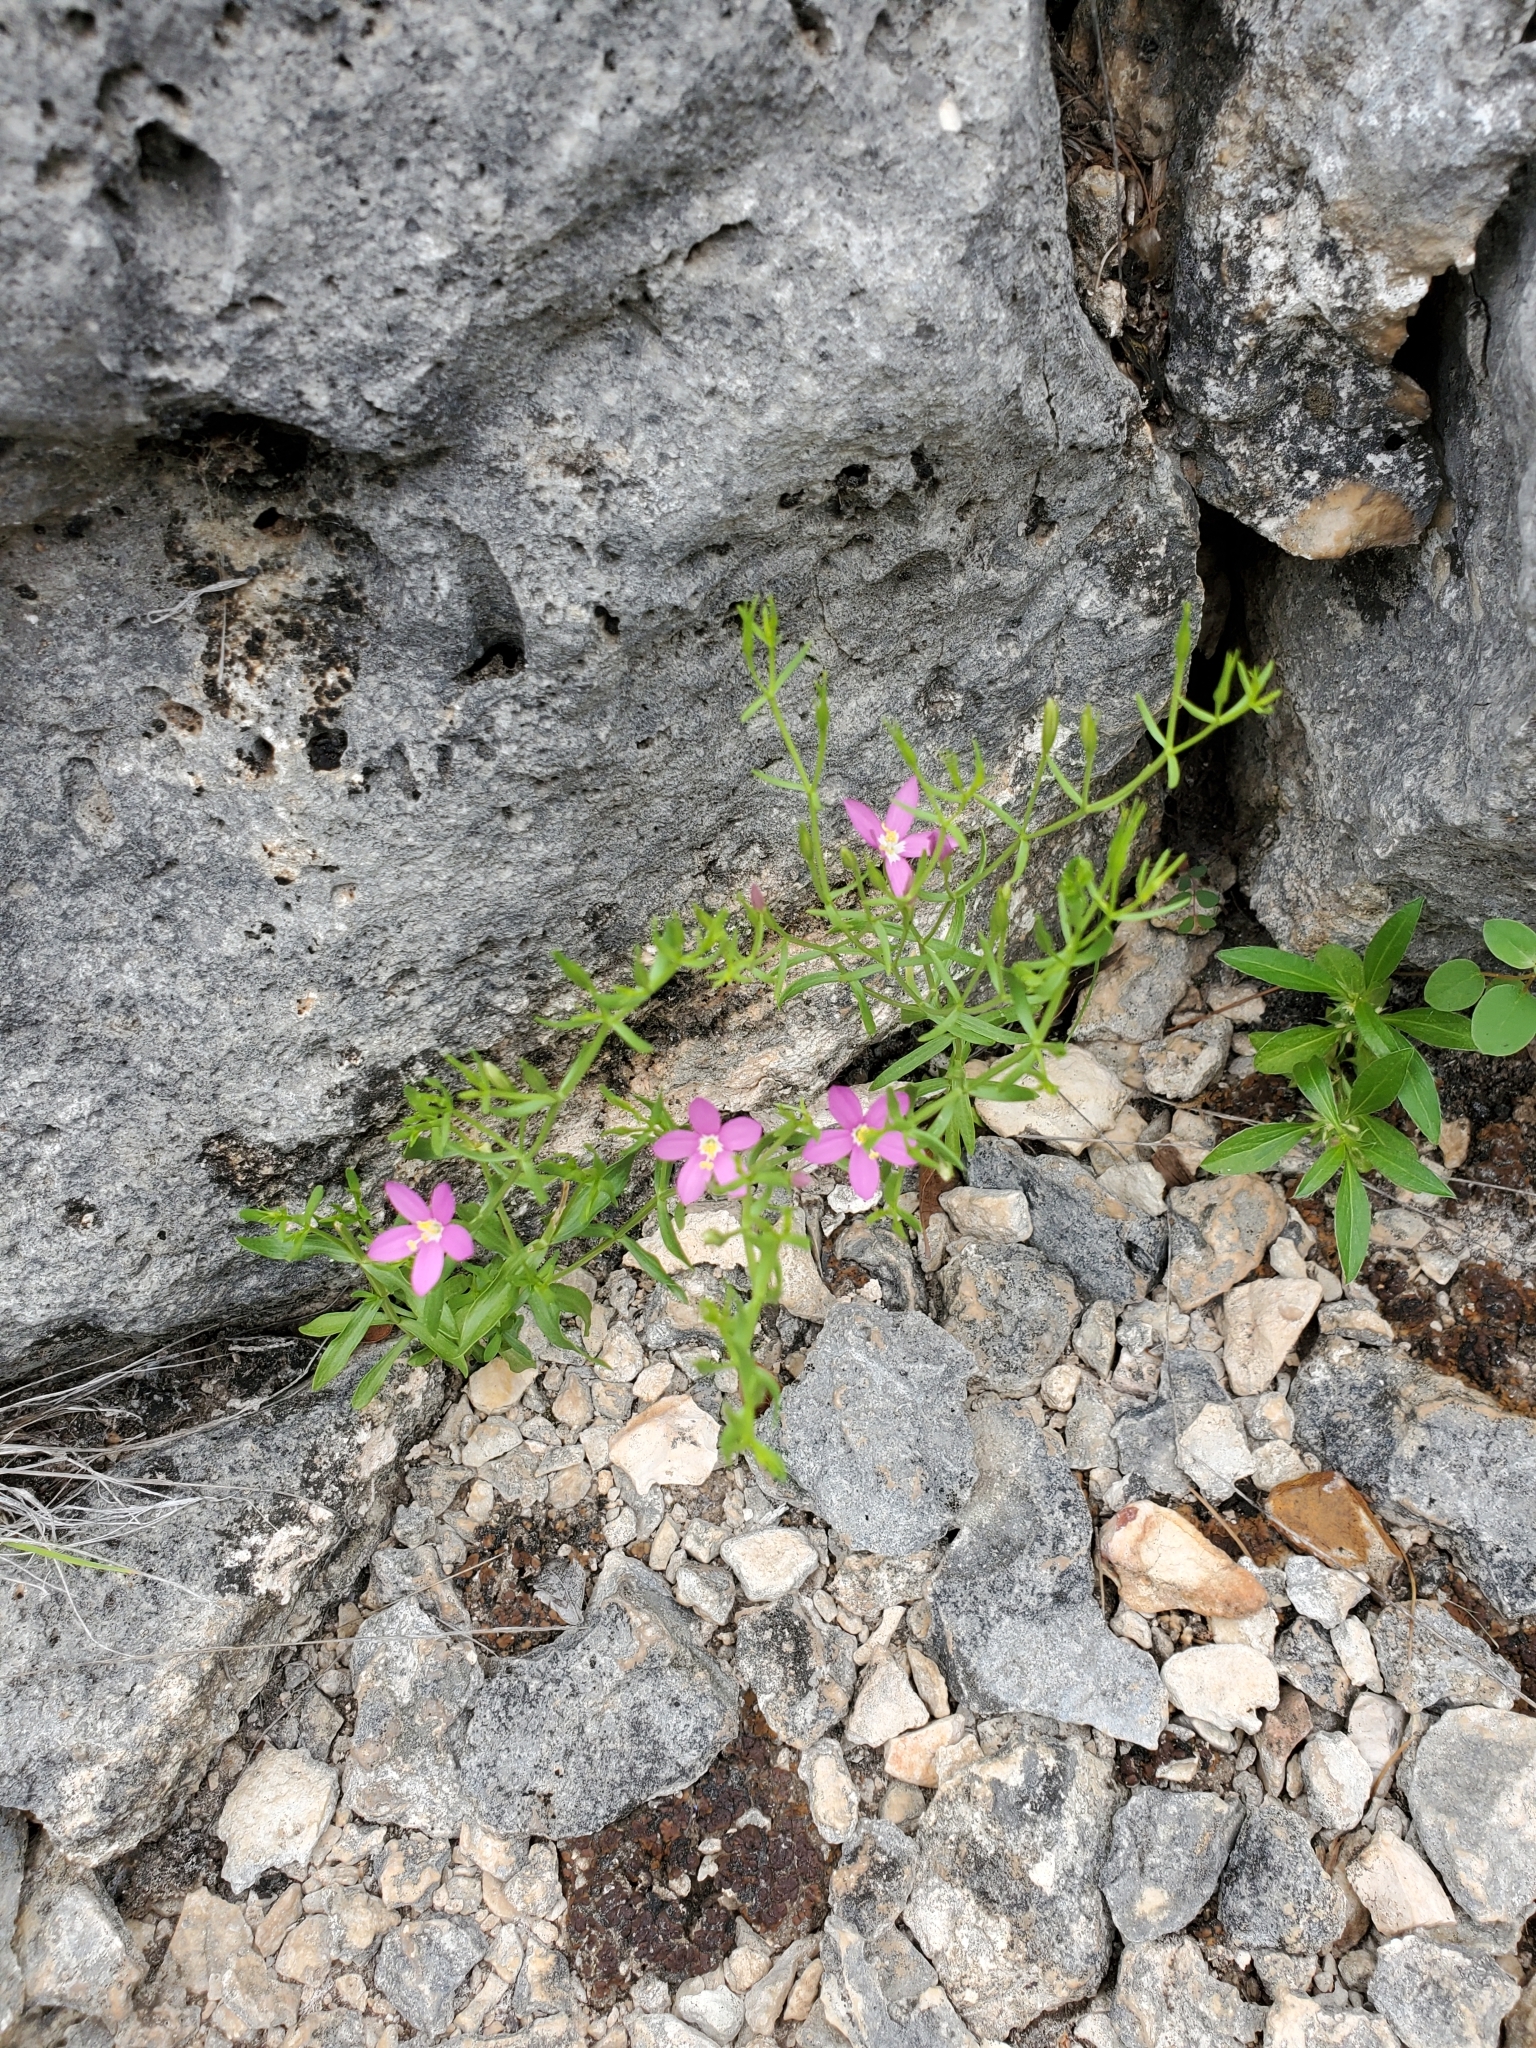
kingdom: Plantae
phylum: Tracheophyta
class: Magnoliopsida
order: Gentianales
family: Gentianaceae
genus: Zeltnera
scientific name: Zeltnera calycosa
